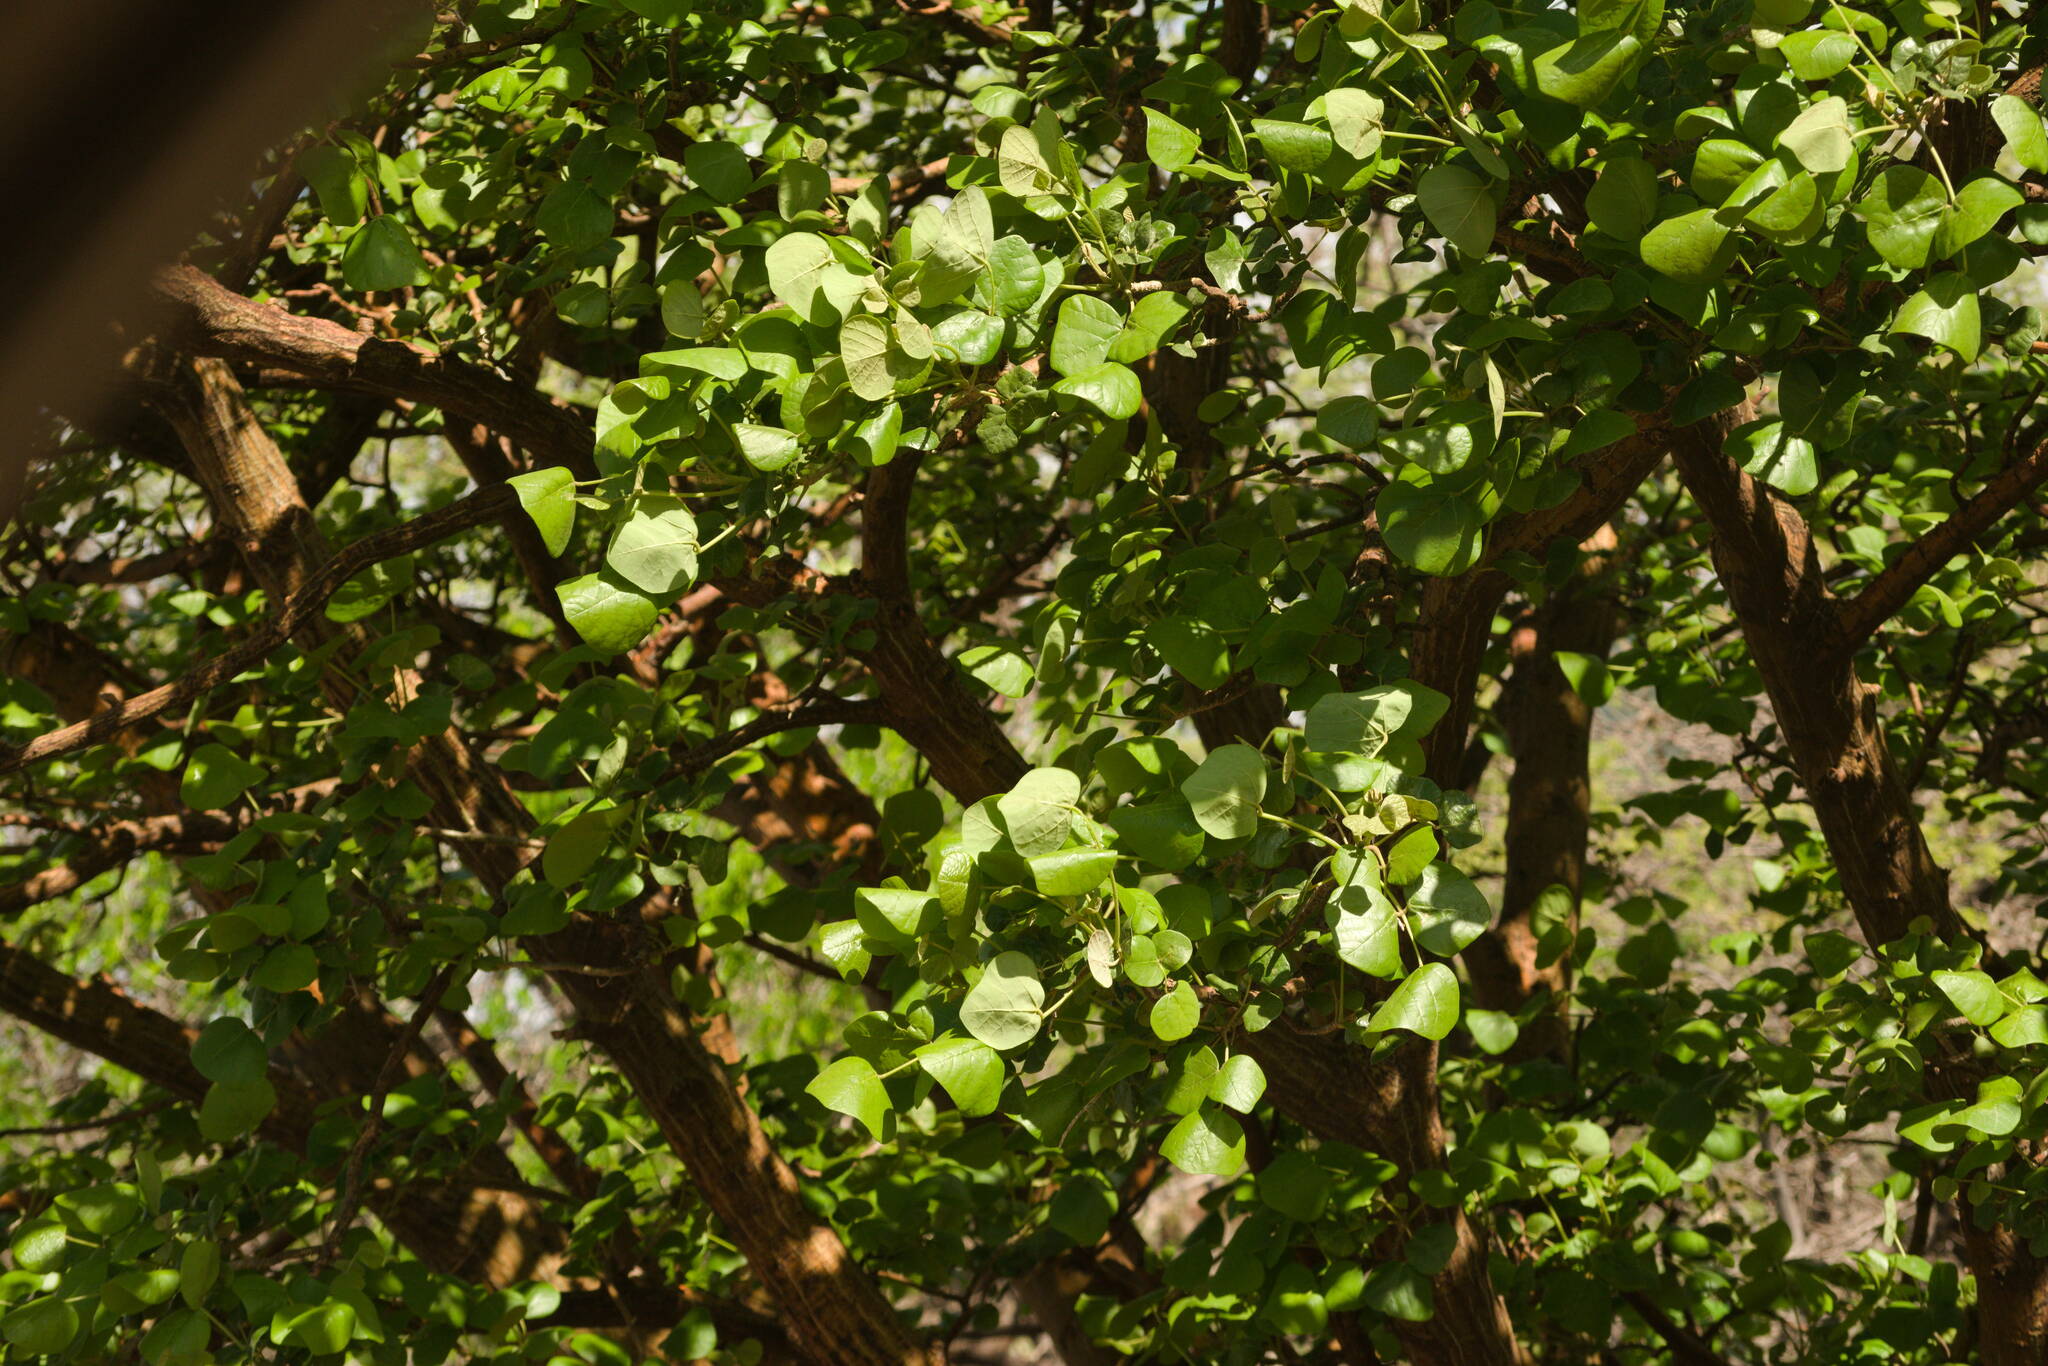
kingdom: Plantae
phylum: Tracheophyta
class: Magnoliopsida
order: Fabales
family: Fabaceae
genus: Erythrina
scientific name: Erythrina sandwicensis
